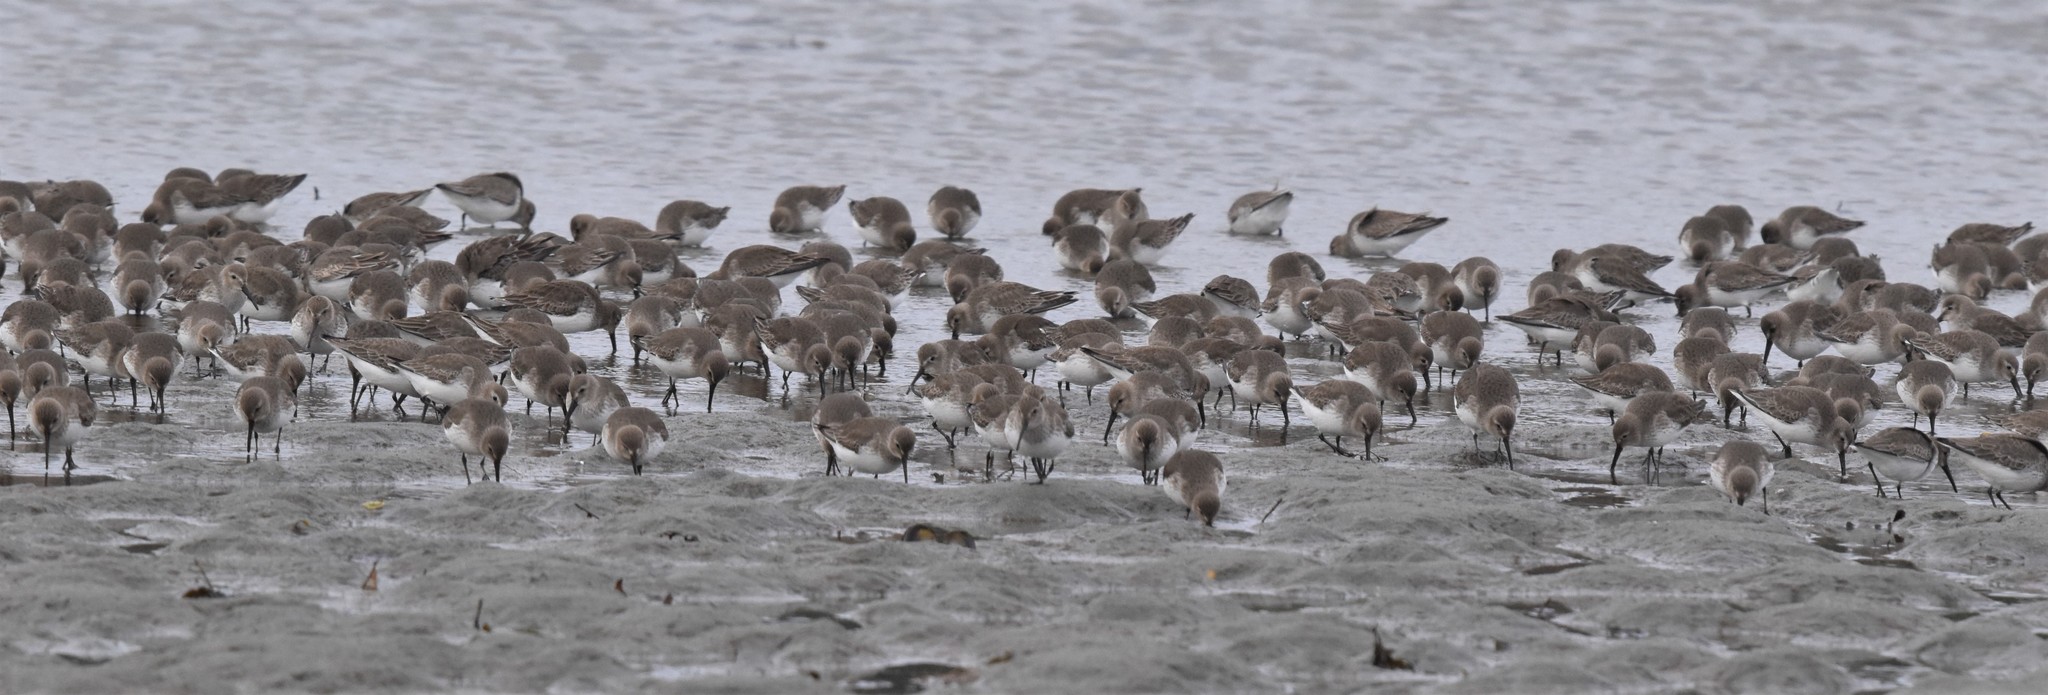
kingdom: Animalia
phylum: Chordata
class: Aves
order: Charadriiformes
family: Scolopacidae
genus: Calidris
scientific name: Calidris alpina
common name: Dunlin
